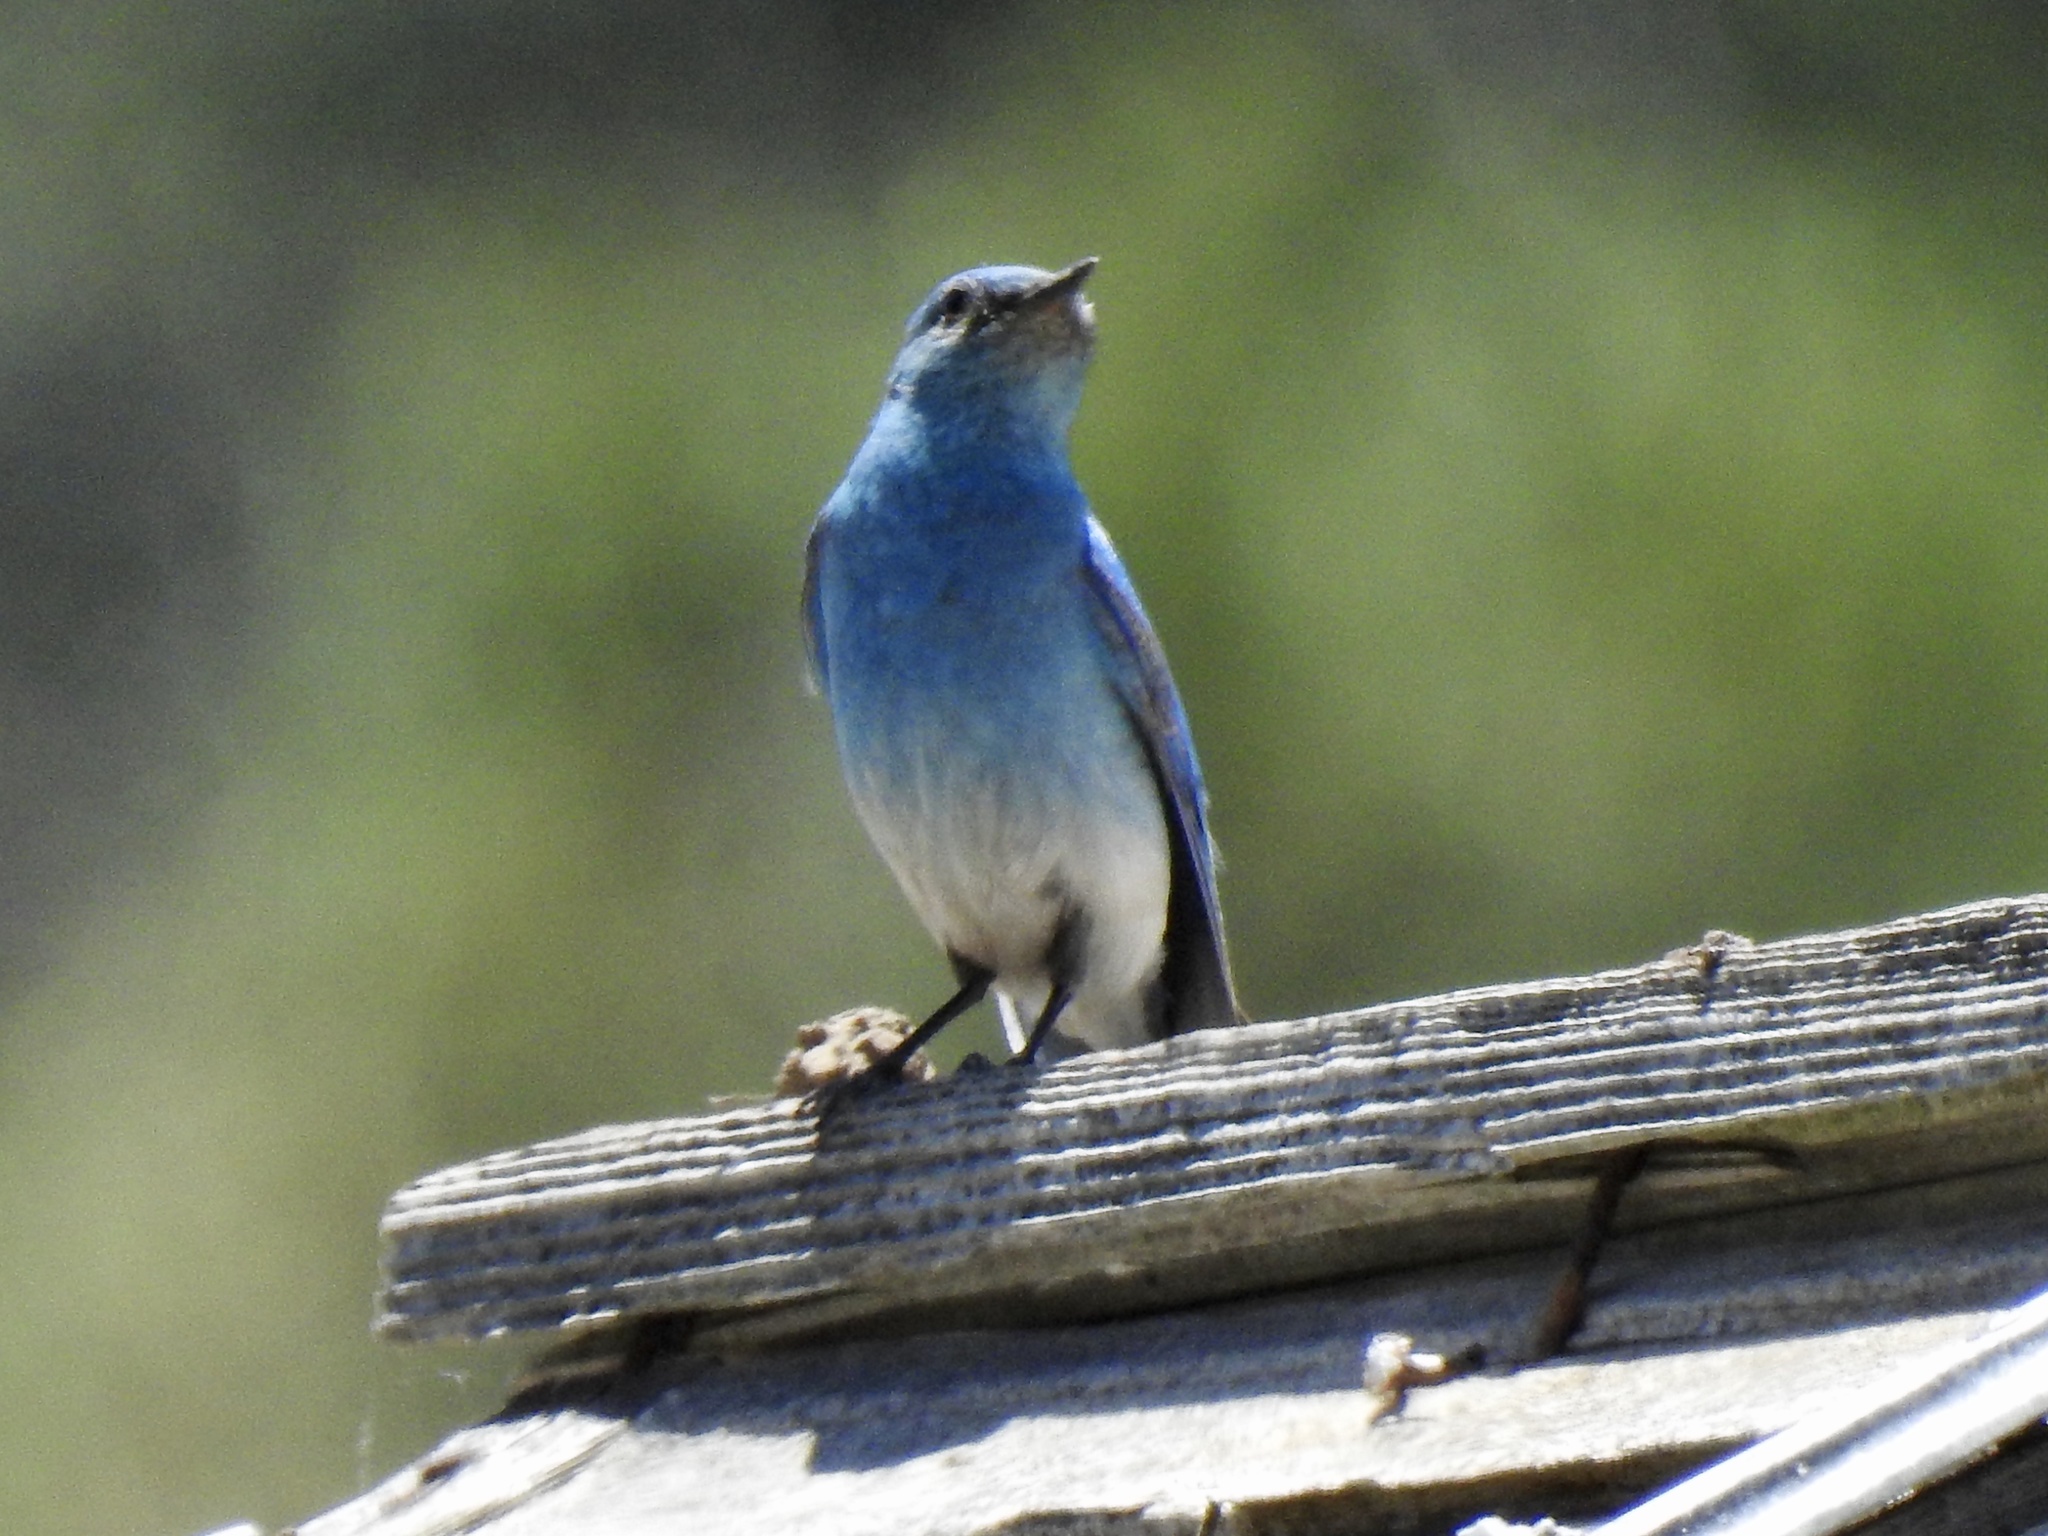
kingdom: Animalia
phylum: Chordata
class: Aves
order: Passeriformes
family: Turdidae
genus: Sialia
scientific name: Sialia currucoides
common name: Mountain bluebird
